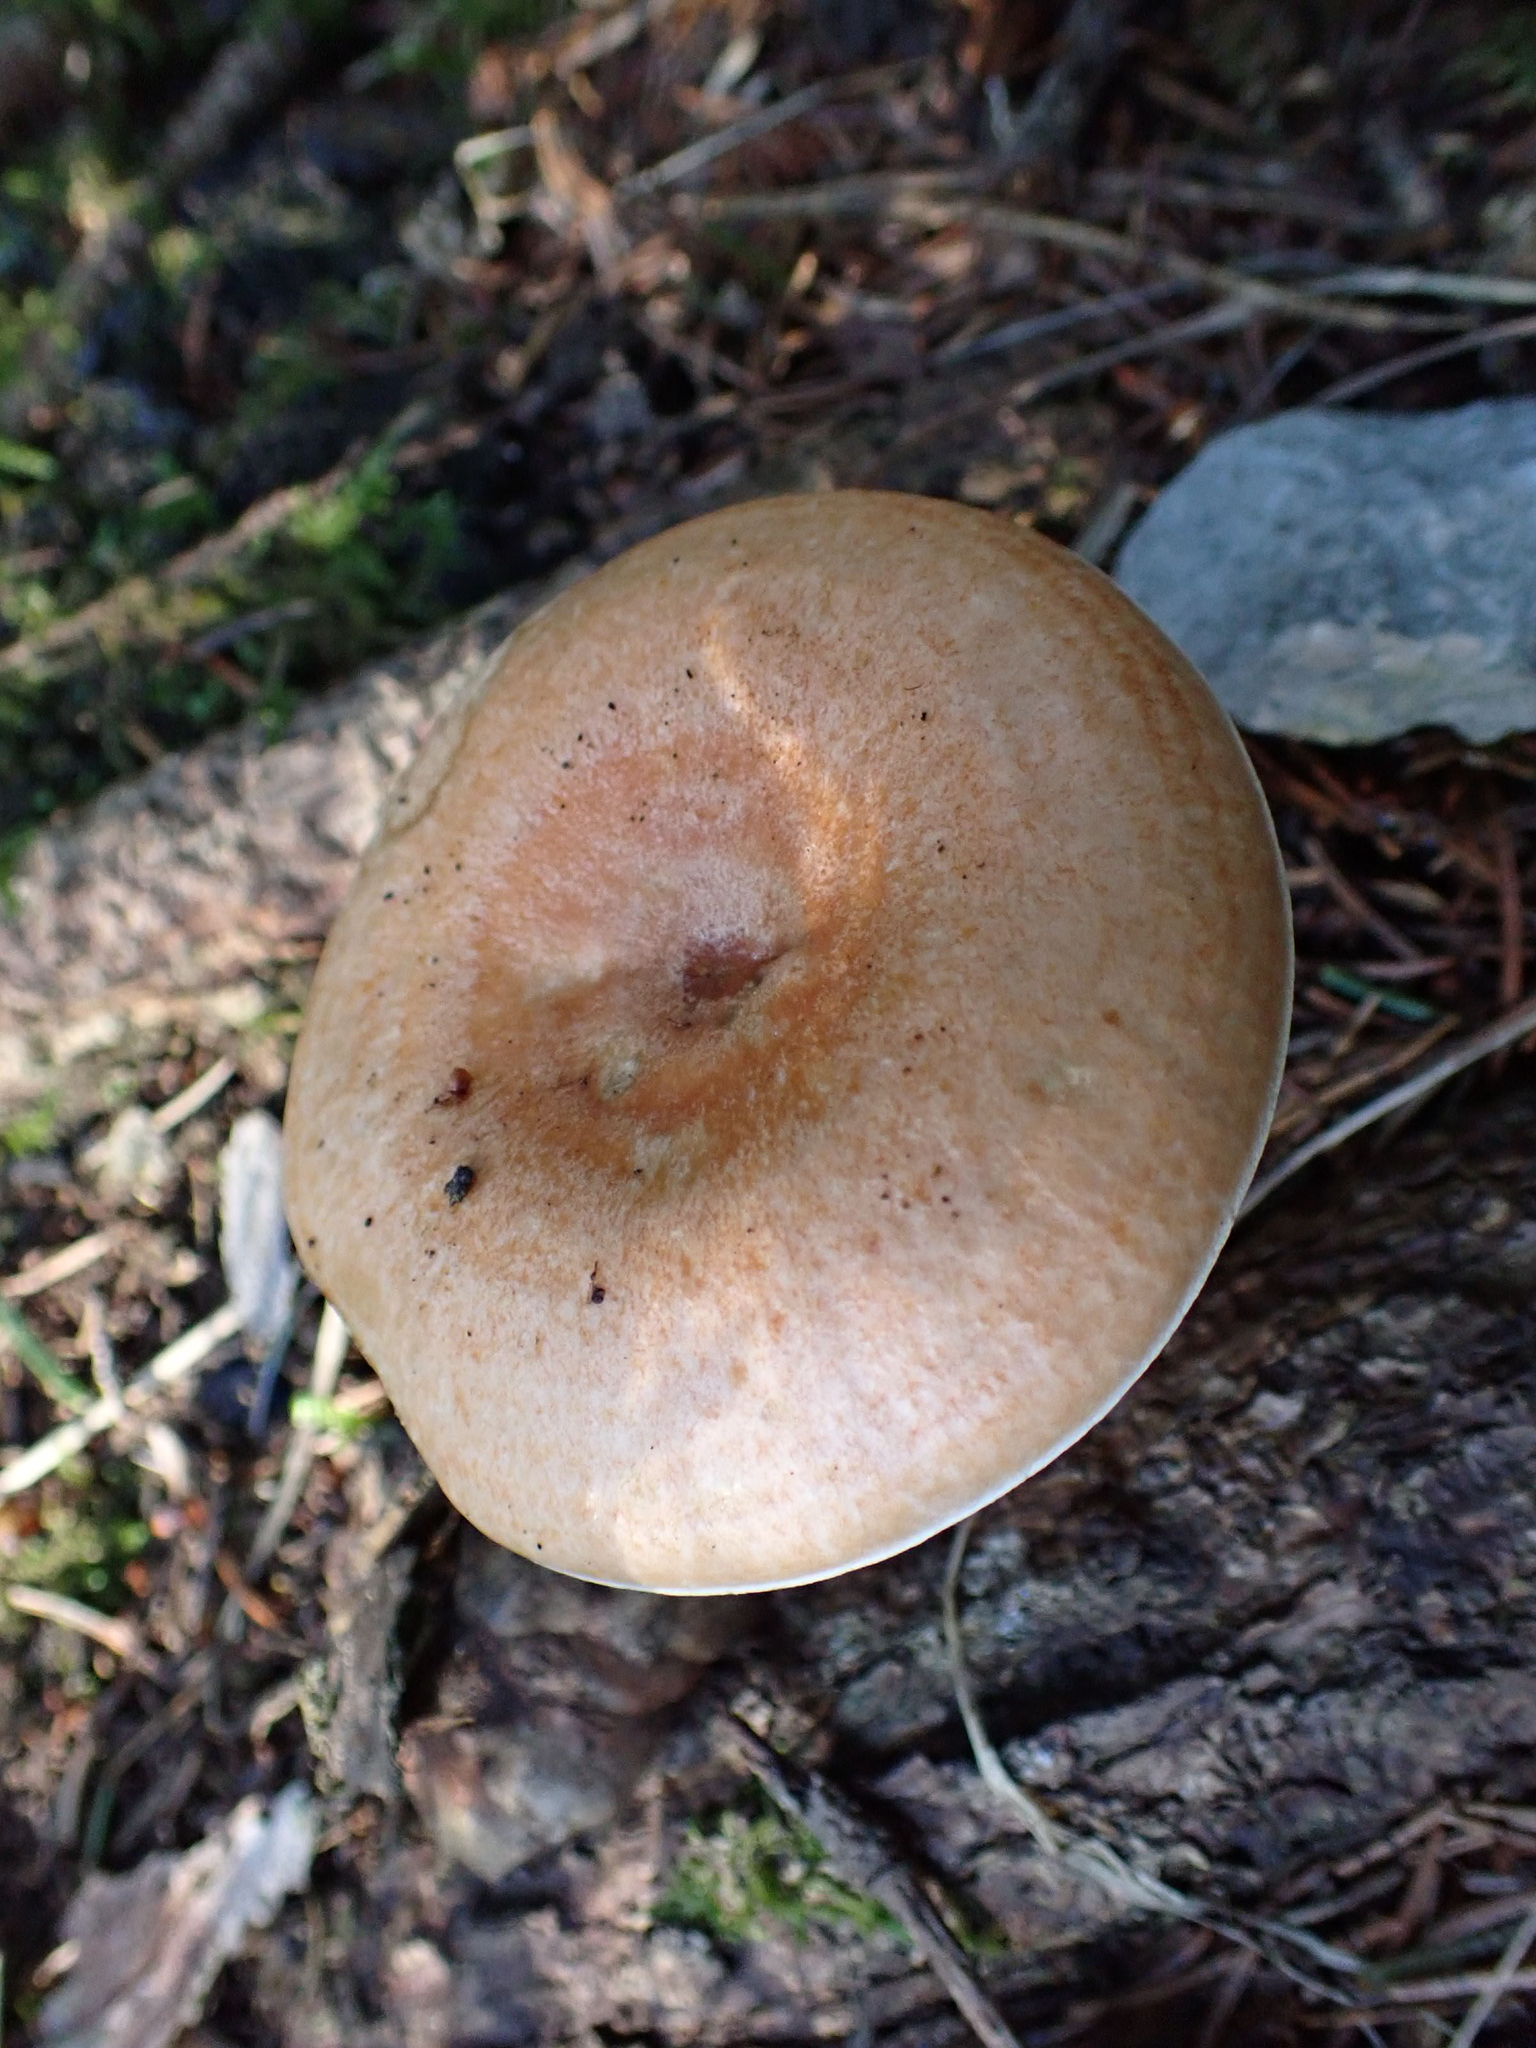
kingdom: Fungi
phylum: Basidiomycota
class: Agaricomycetes
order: Russulales
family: Russulaceae
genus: Lactarius
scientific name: Lactarius deterrimus
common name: False saffron milkcap
